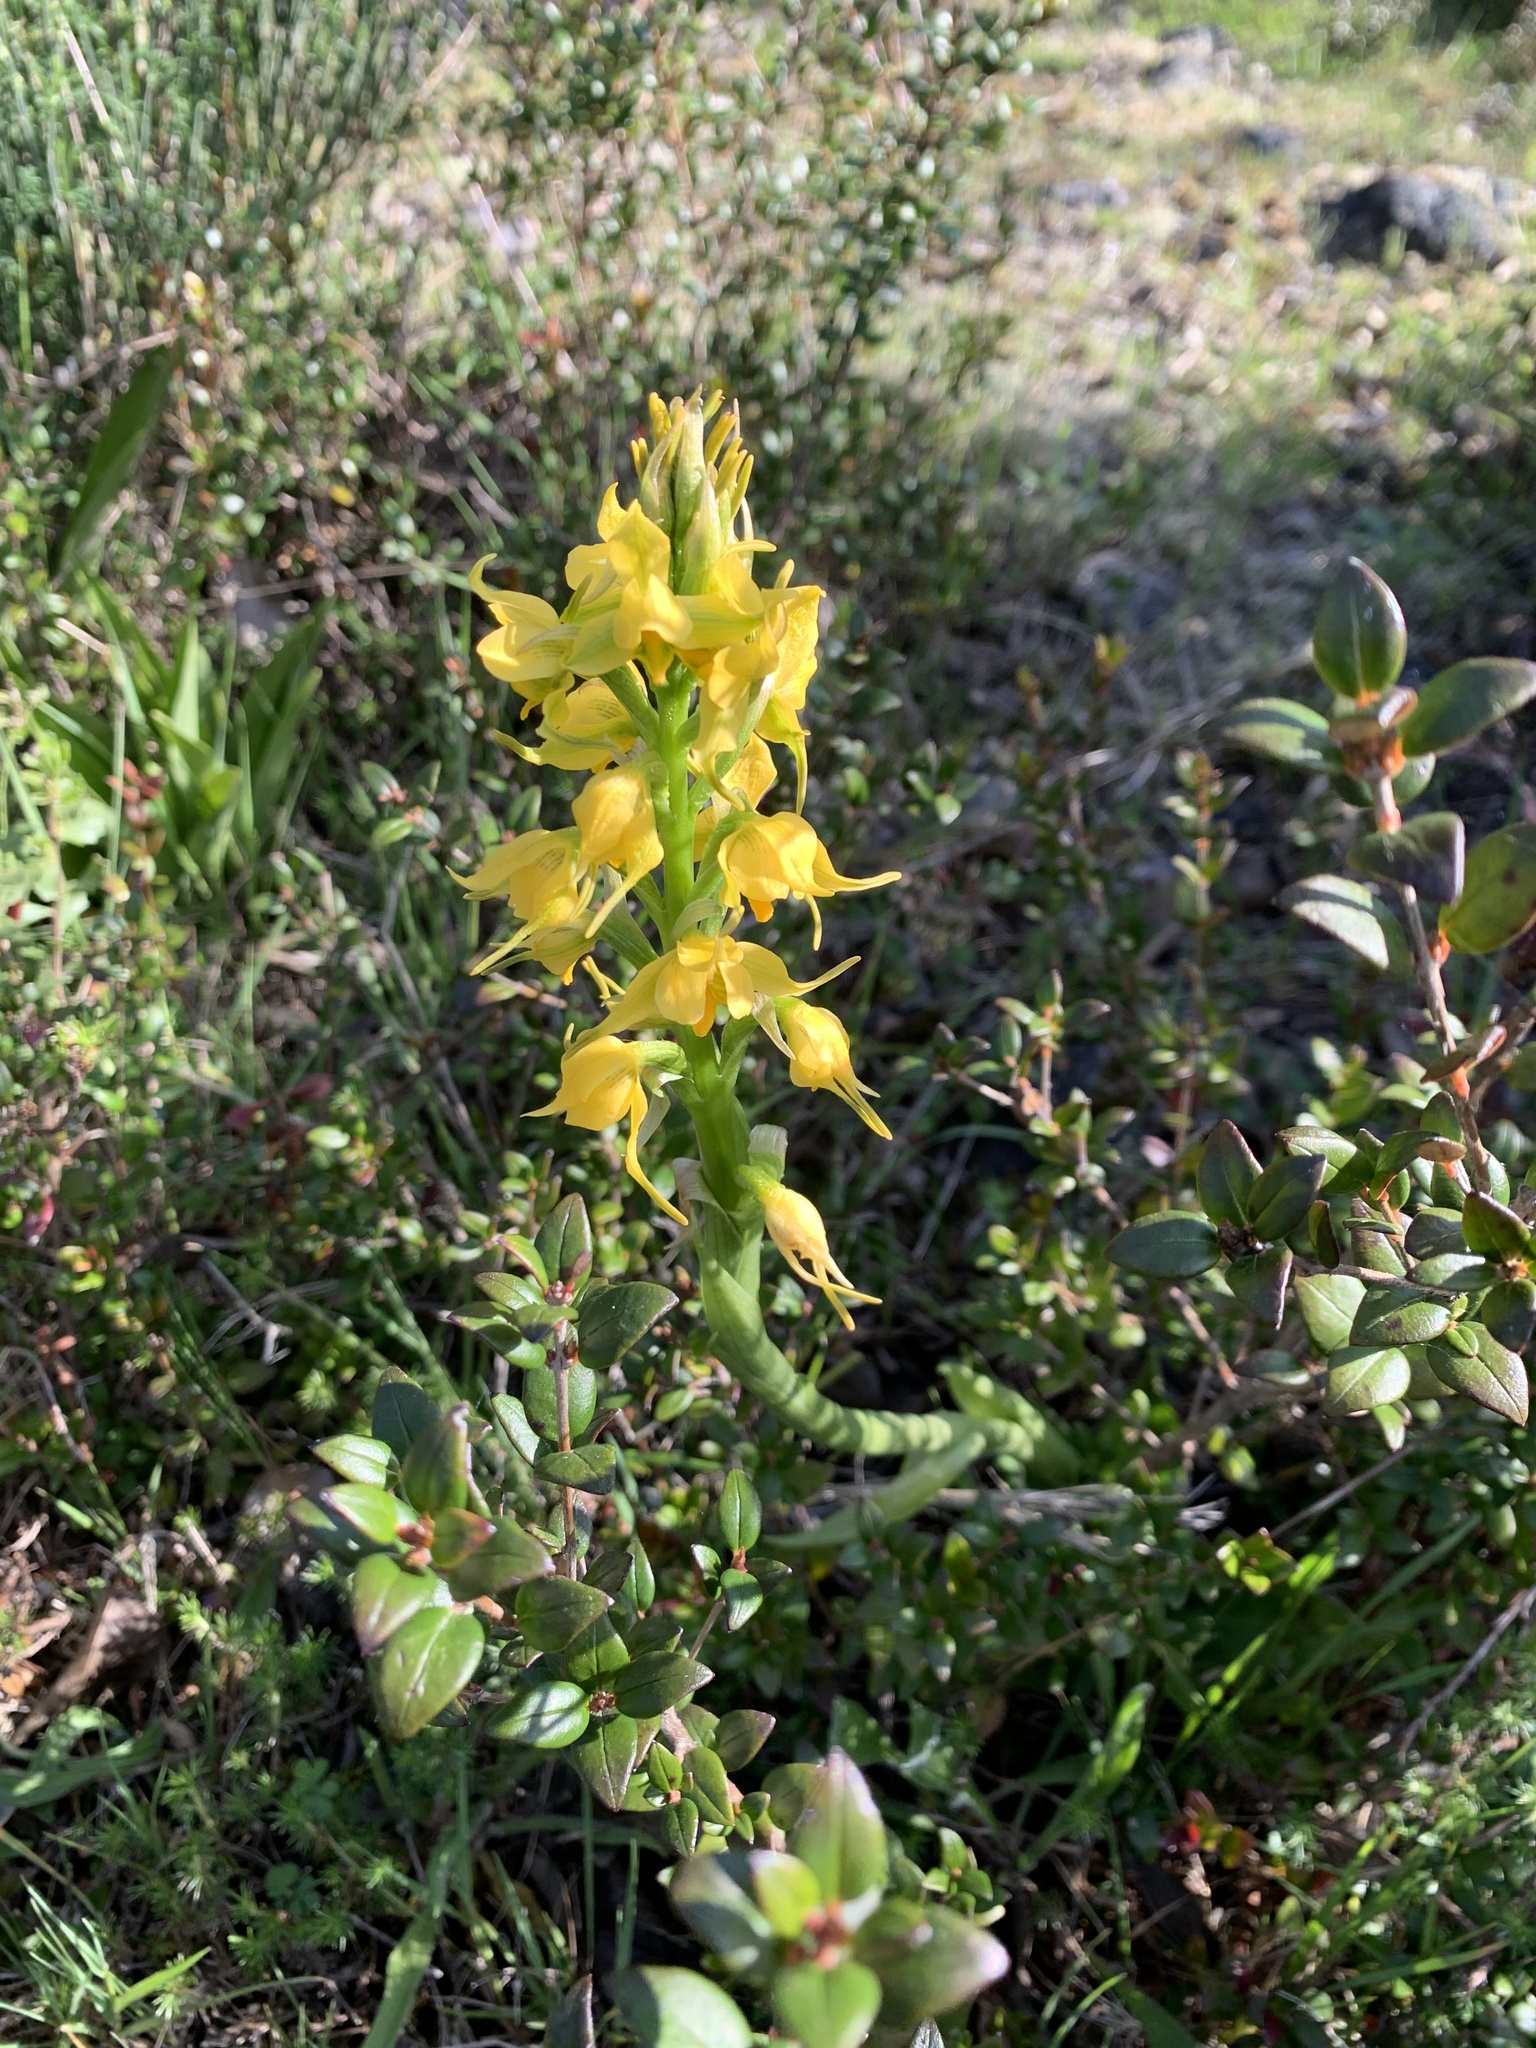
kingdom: Plantae
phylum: Tracheophyta
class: Liliopsida
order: Asparagales
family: Orchidaceae
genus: Gavilea
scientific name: Gavilea odoratissima
